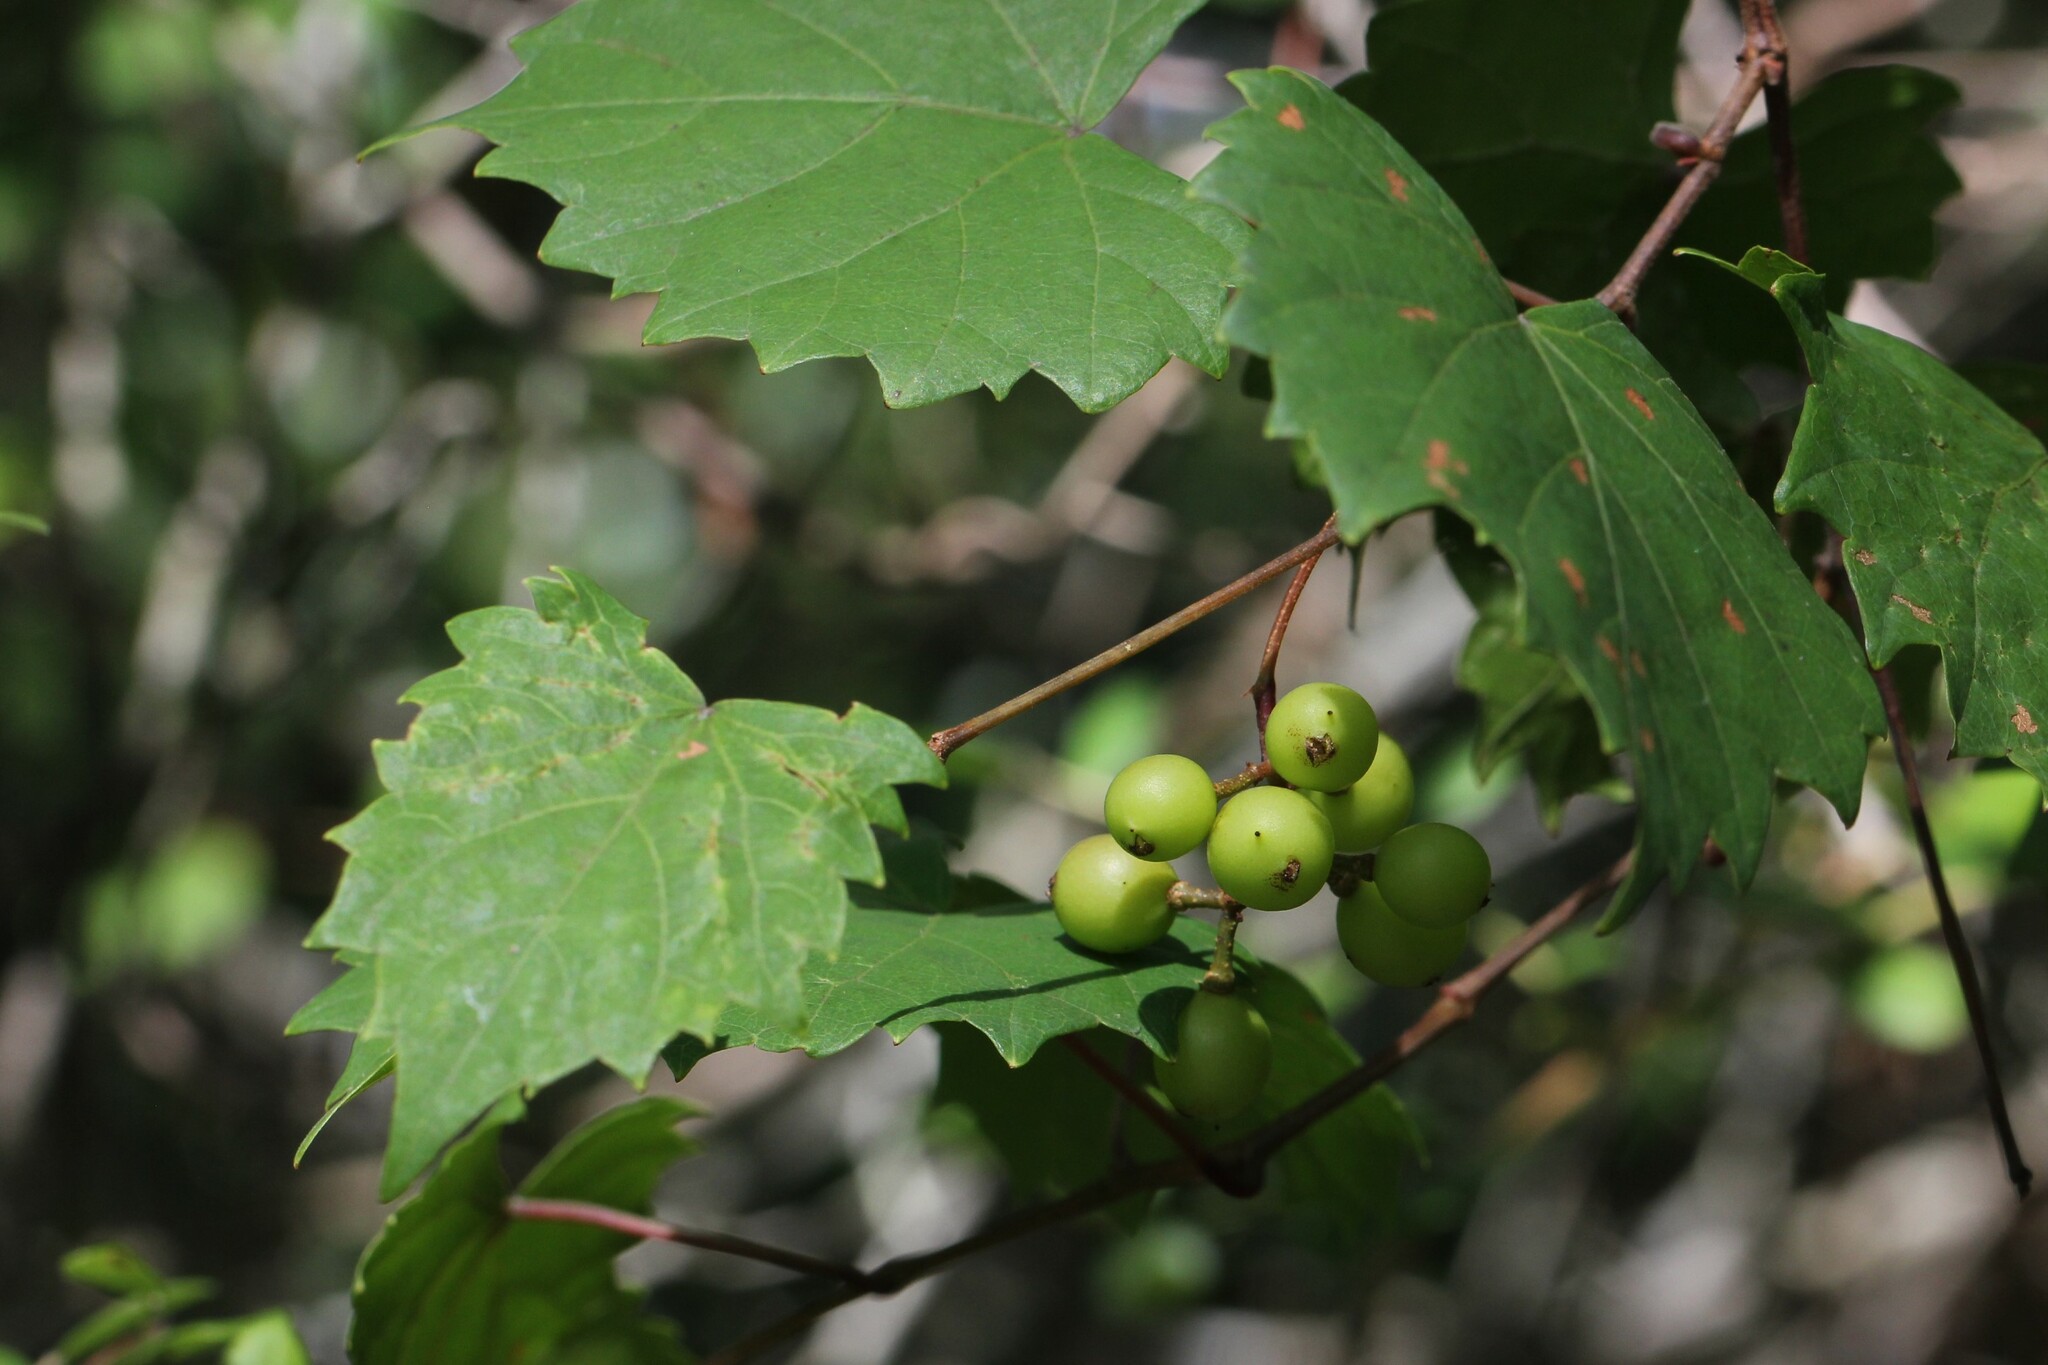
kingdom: Plantae
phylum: Tracheophyta
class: Magnoliopsida
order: Vitales
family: Vitaceae
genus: Vitis
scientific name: Vitis rotundifolia
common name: Muscadine grape
